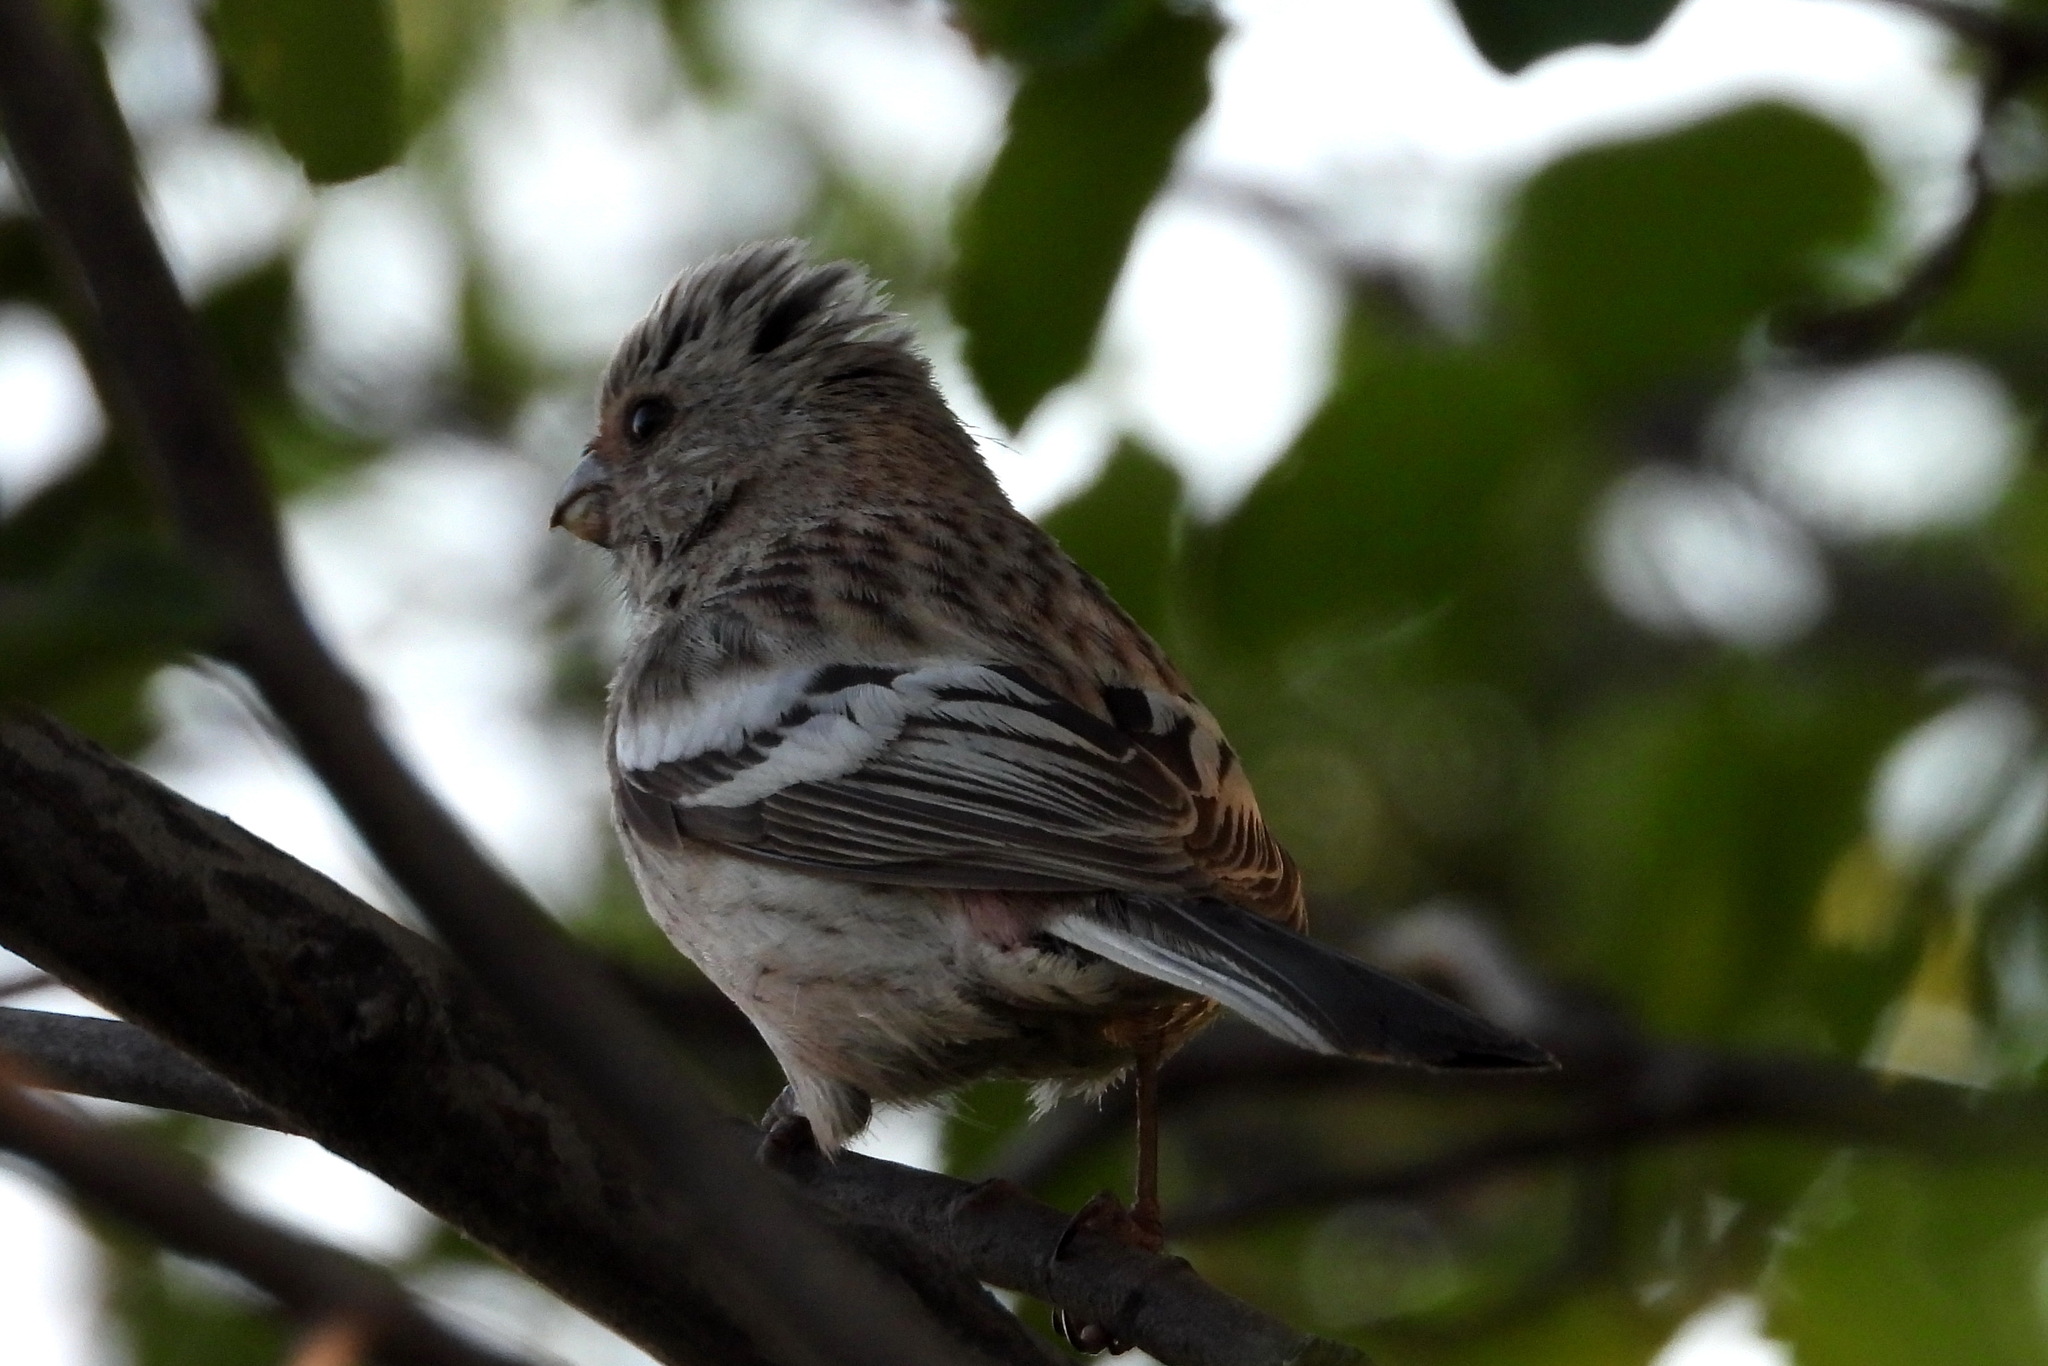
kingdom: Animalia
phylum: Chordata
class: Aves
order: Passeriformes
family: Fringillidae
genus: Carpodacus
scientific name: Carpodacus sibiricus
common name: Long-tailed rosefinch
